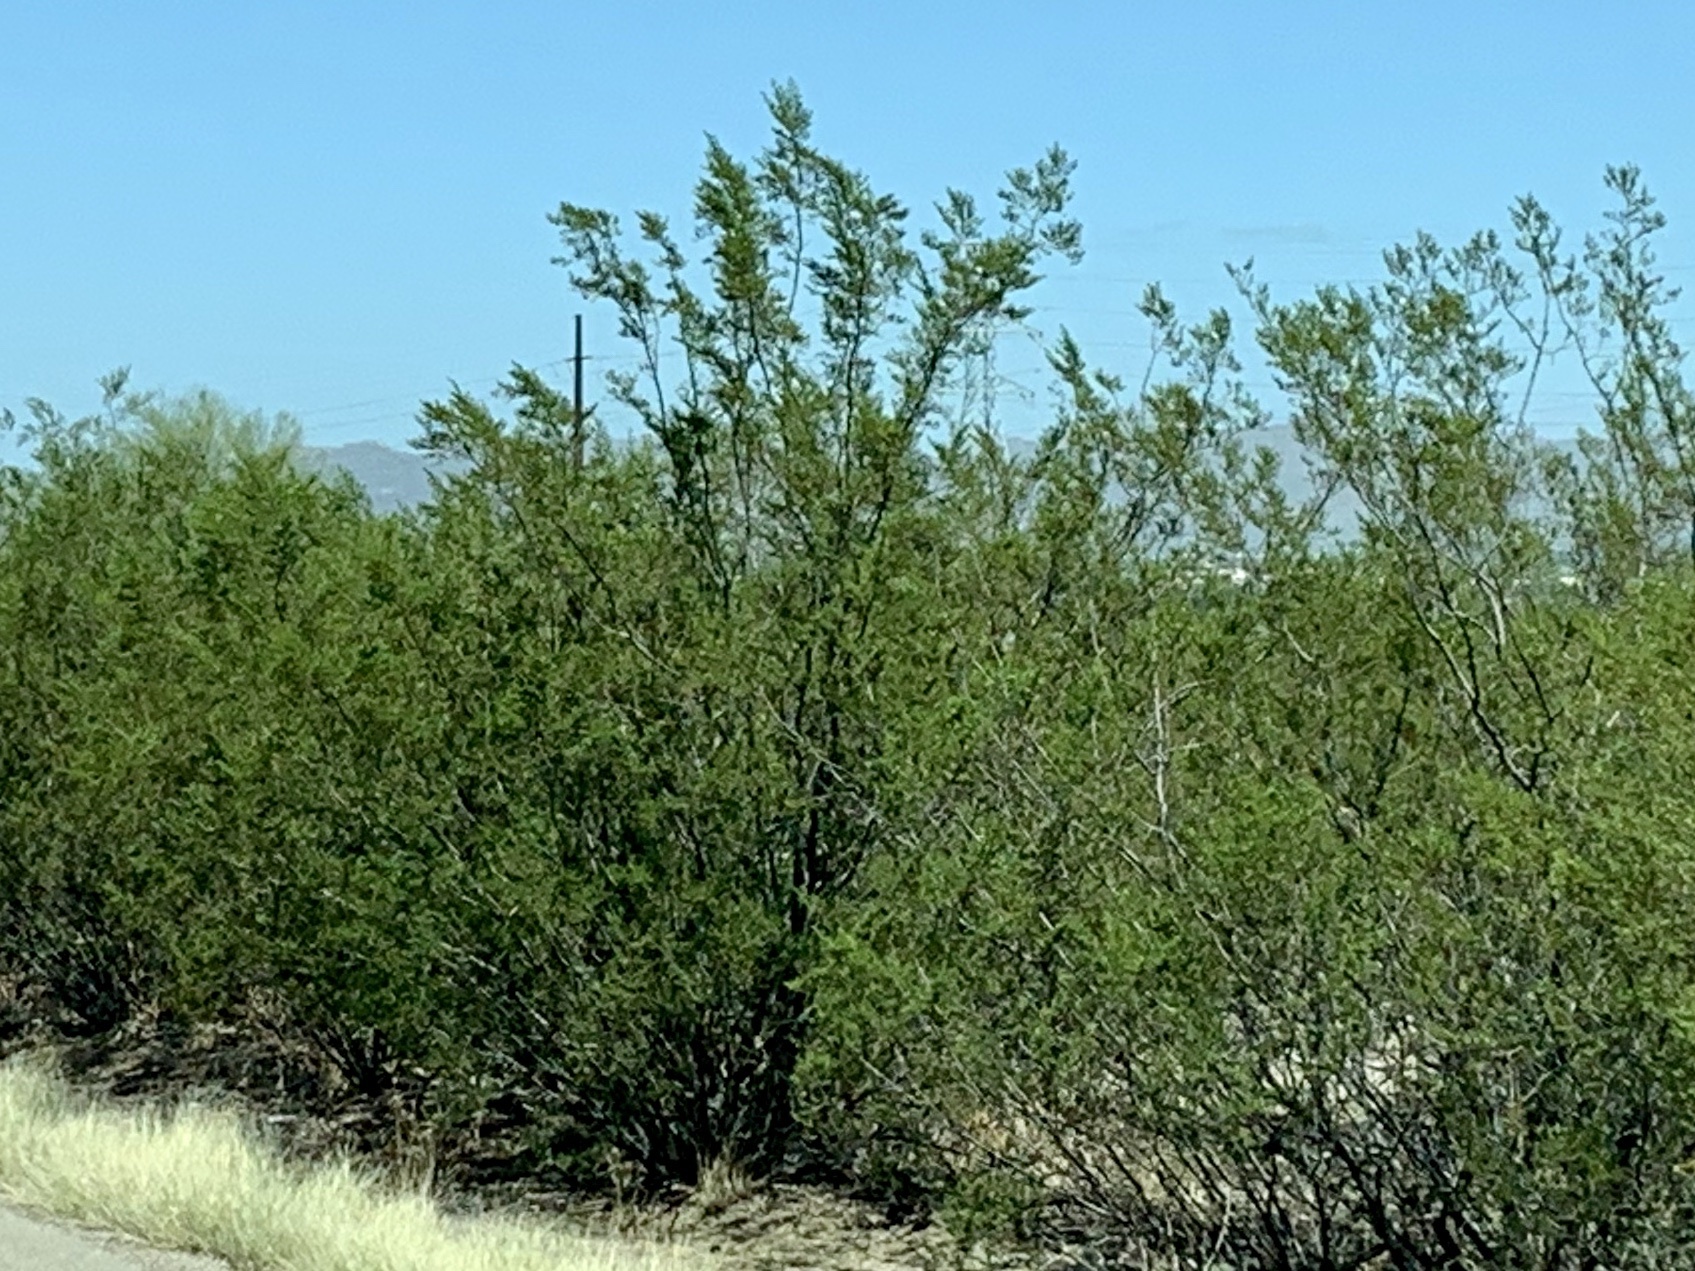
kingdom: Plantae
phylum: Tracheophyta
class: Magnoliopsida
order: Zygophyllales
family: Zygophyllaceae
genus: Larrea
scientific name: Larrea tridentata
